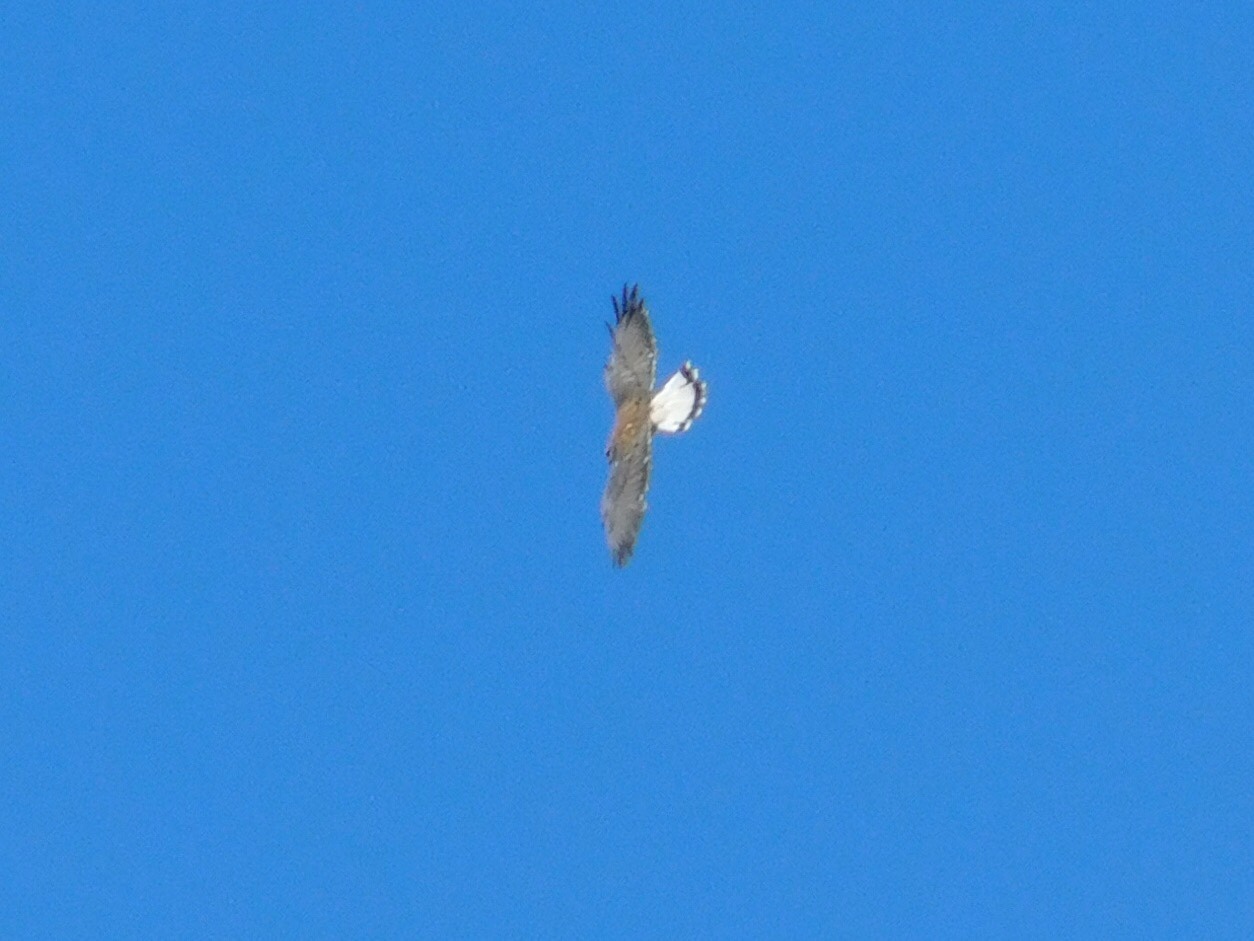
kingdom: Animalia
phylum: Chordata
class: Aves
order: Accipitriformes
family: Accipitridae
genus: Buteo
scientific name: Buteo polyosoma
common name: Variable hawk
